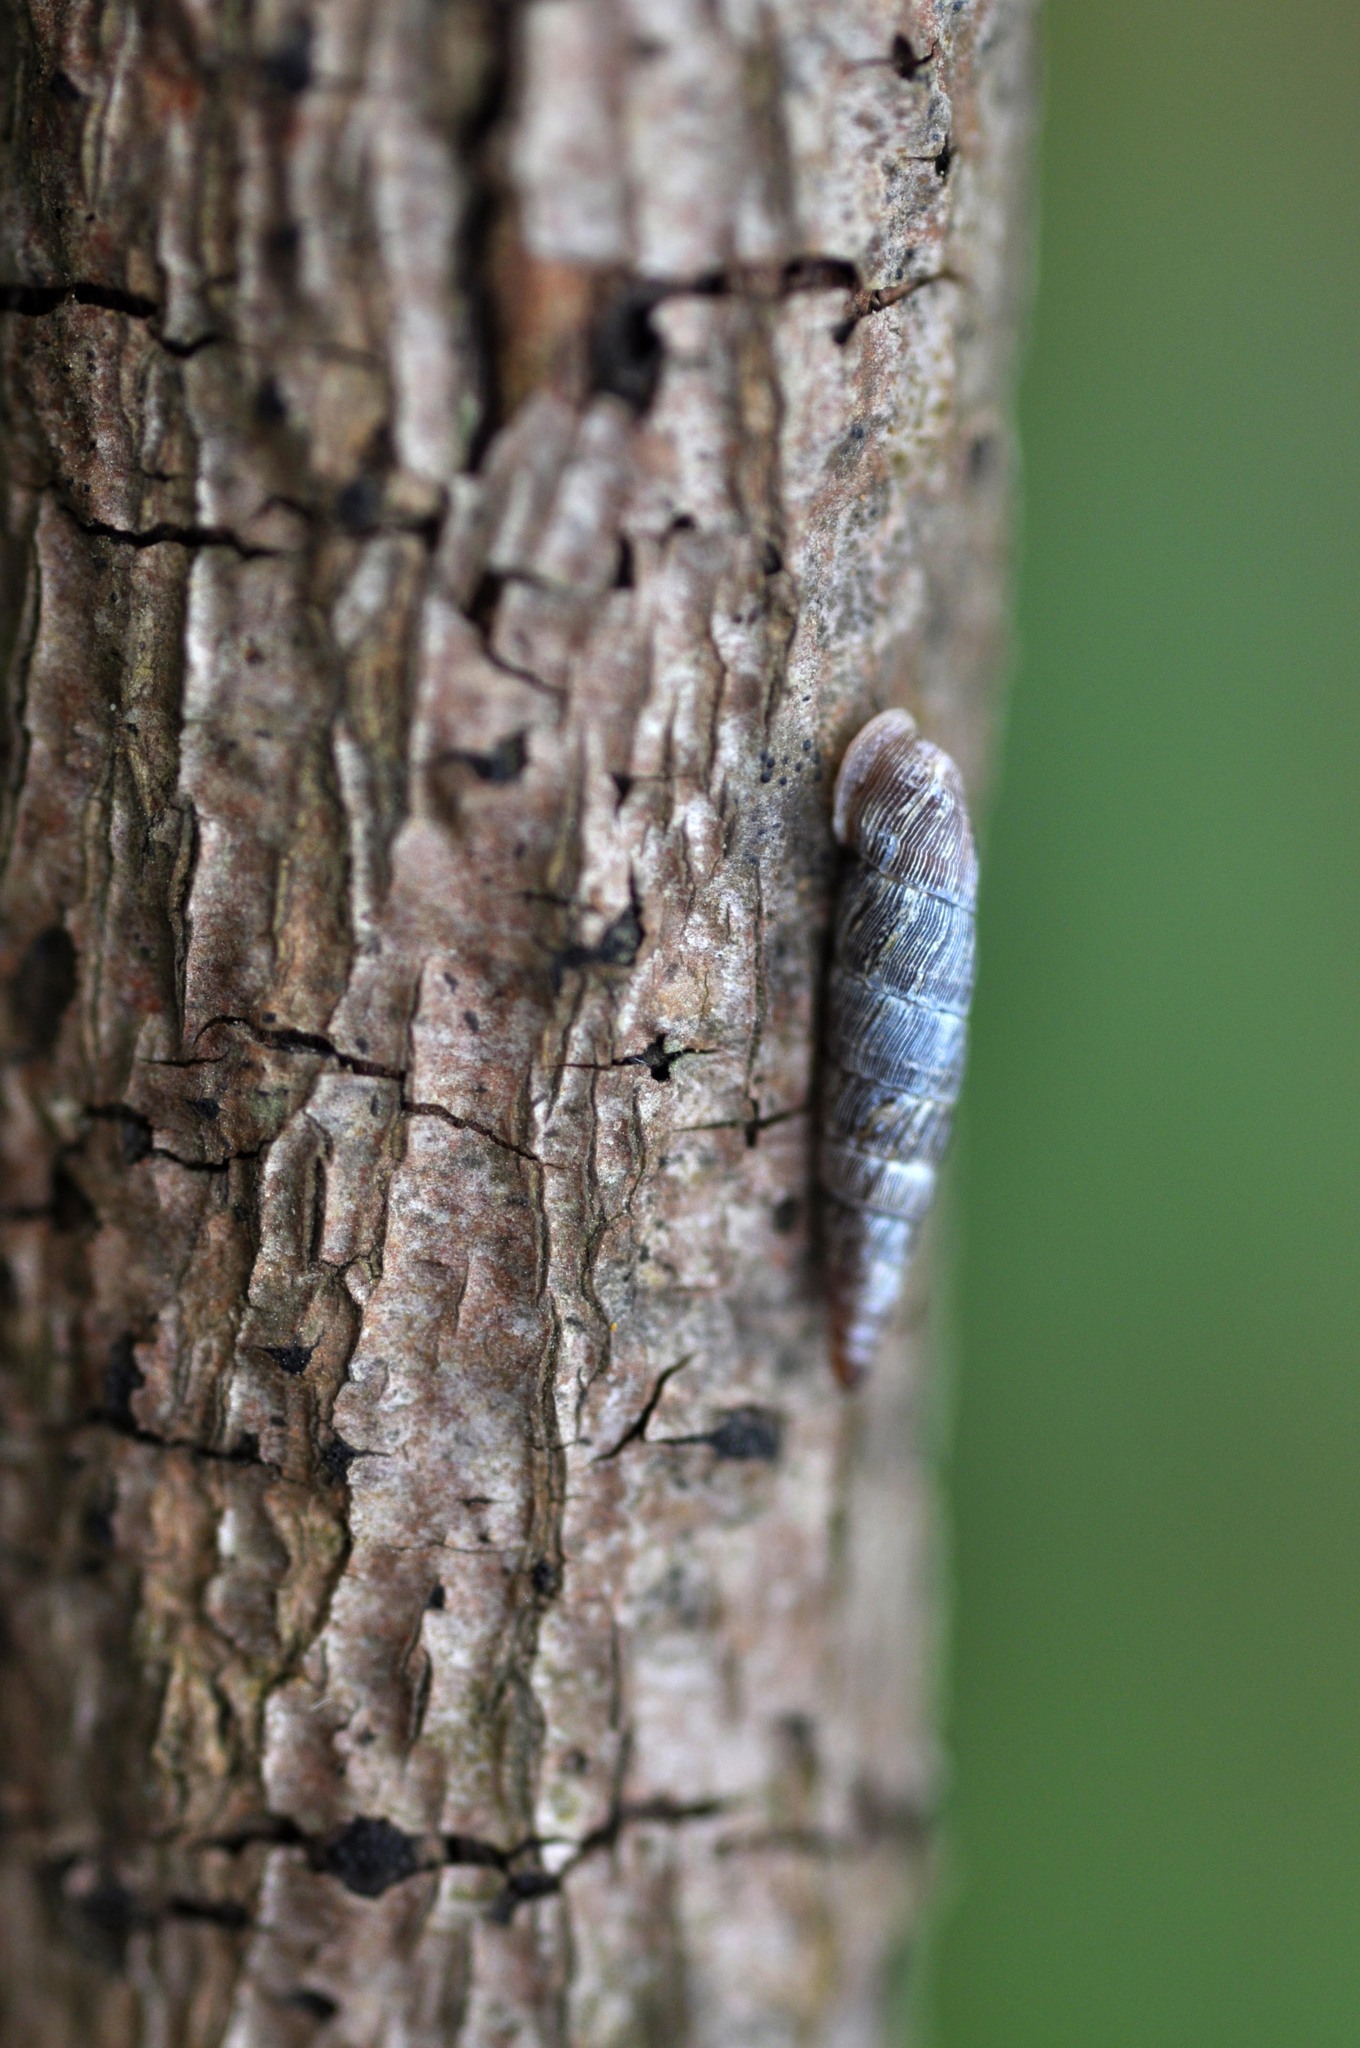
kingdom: Animalia
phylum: Mollusca
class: Gastropoda
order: Stylommatophora
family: Clausiliidae
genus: Clausilia
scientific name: Clausilia bidentata
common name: Two-toothed door snail
